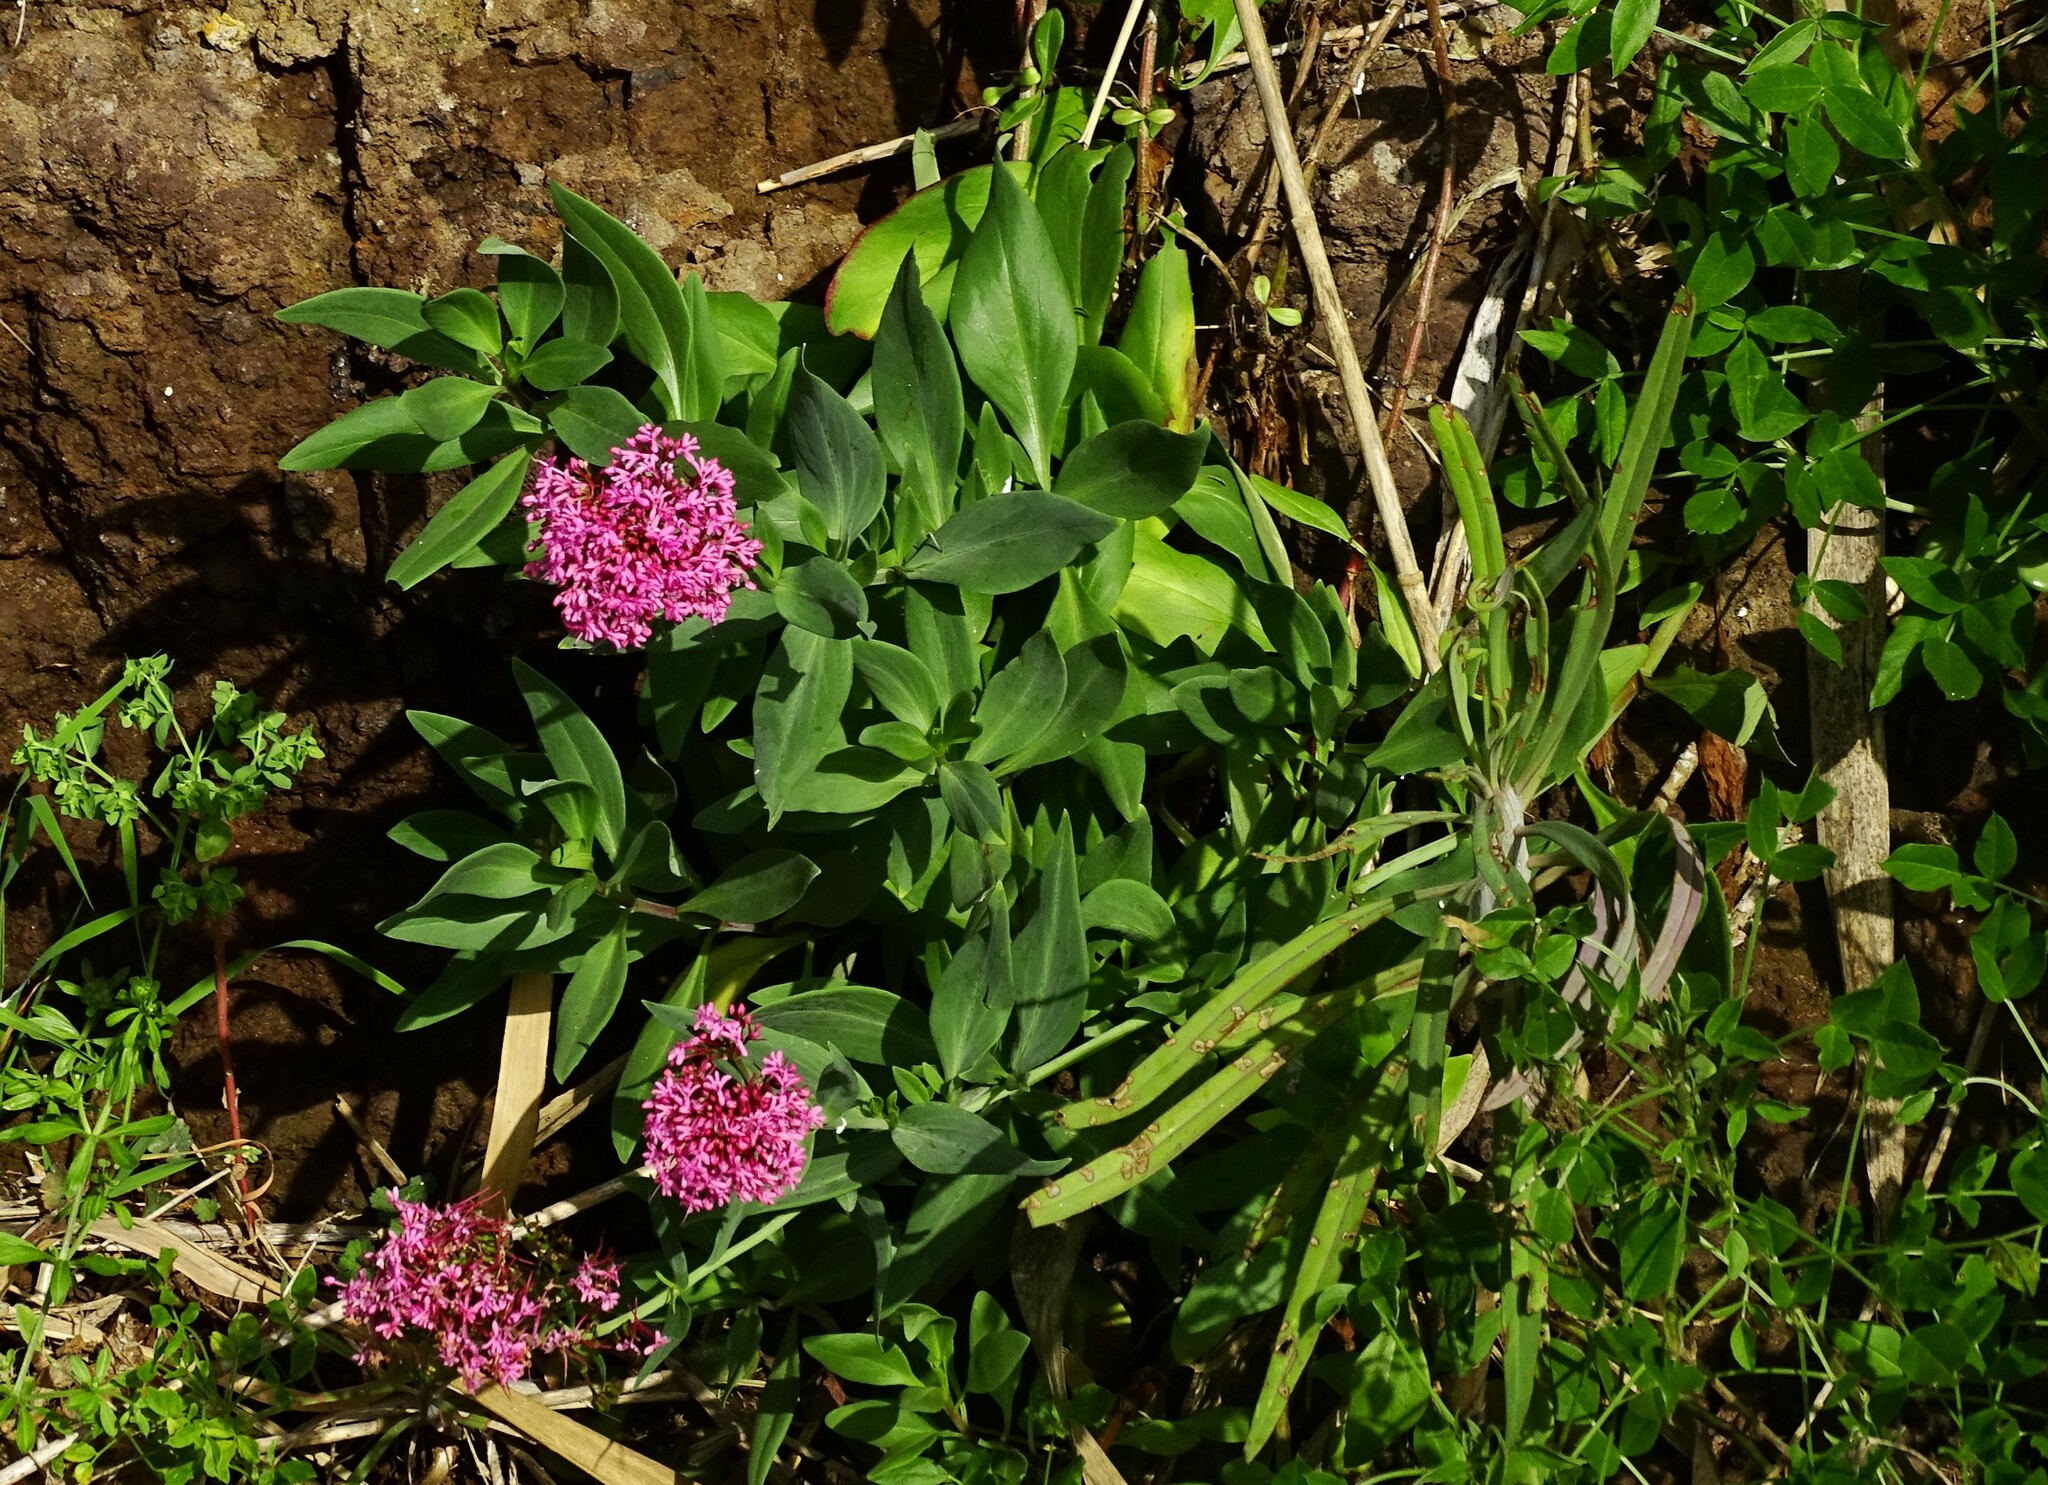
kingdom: Plantae
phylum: Tracheophyta
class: Magnoliopsida
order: Dipsacales
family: Caprifoliaceae
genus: Centranthus
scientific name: Centranthus ruber
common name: Red valerian
